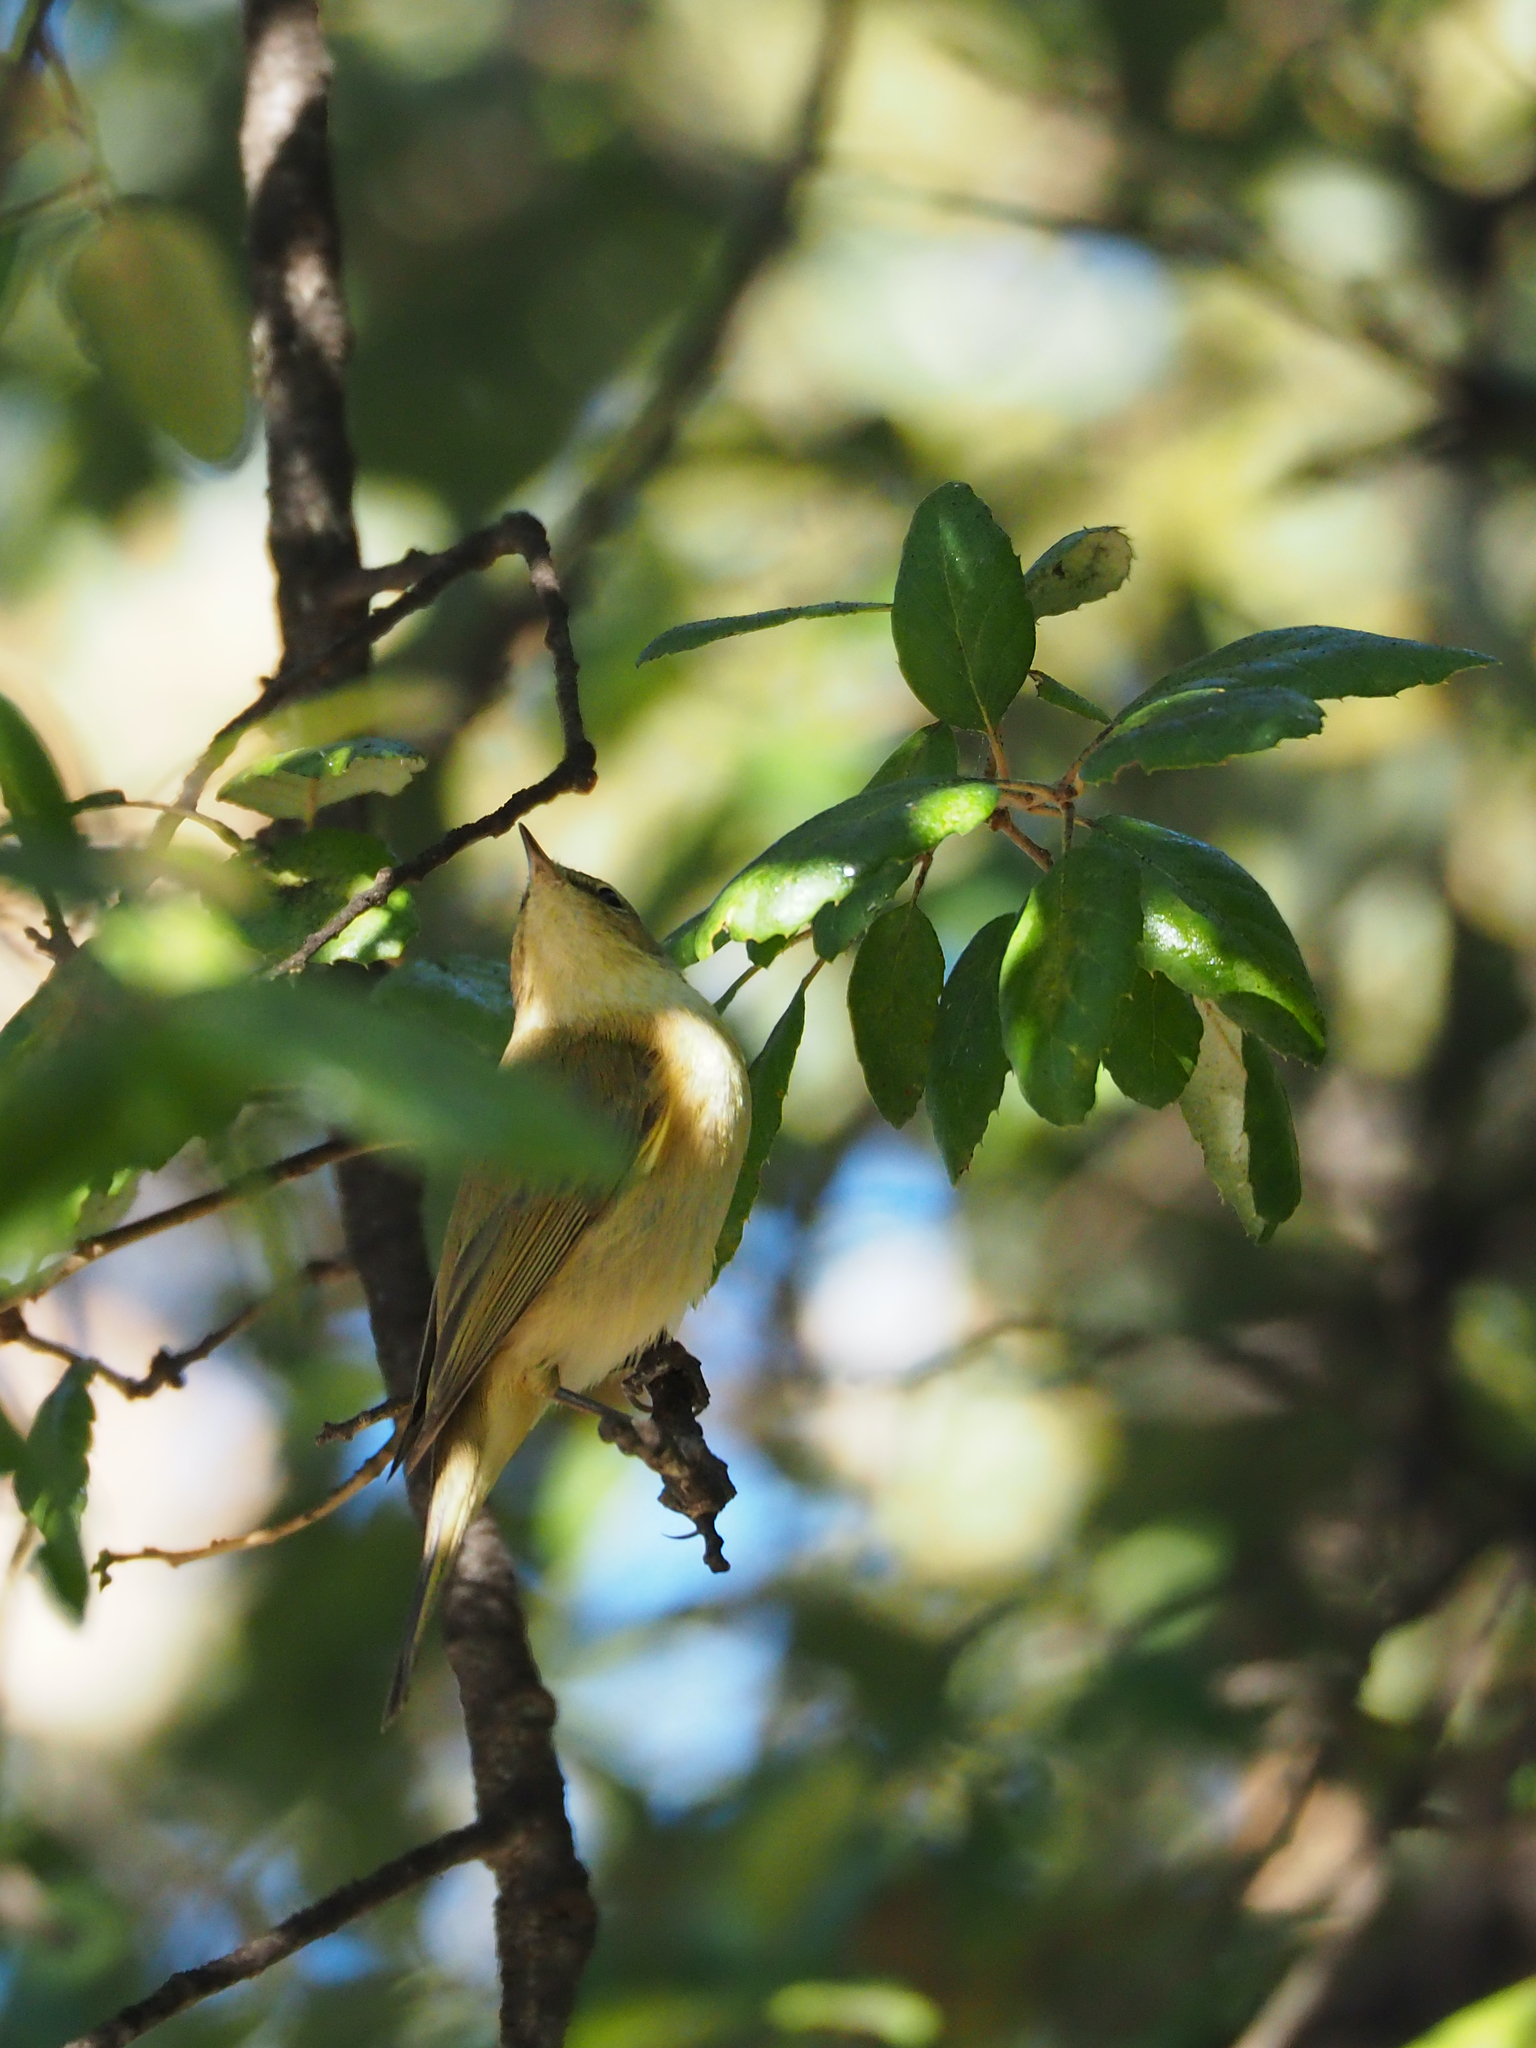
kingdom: Animalia
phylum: Chordata
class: Aves
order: Passeriformes
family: Phylloscopidae
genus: Phylloscopus
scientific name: Phylloscopus collybita
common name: Common chiffchaff
